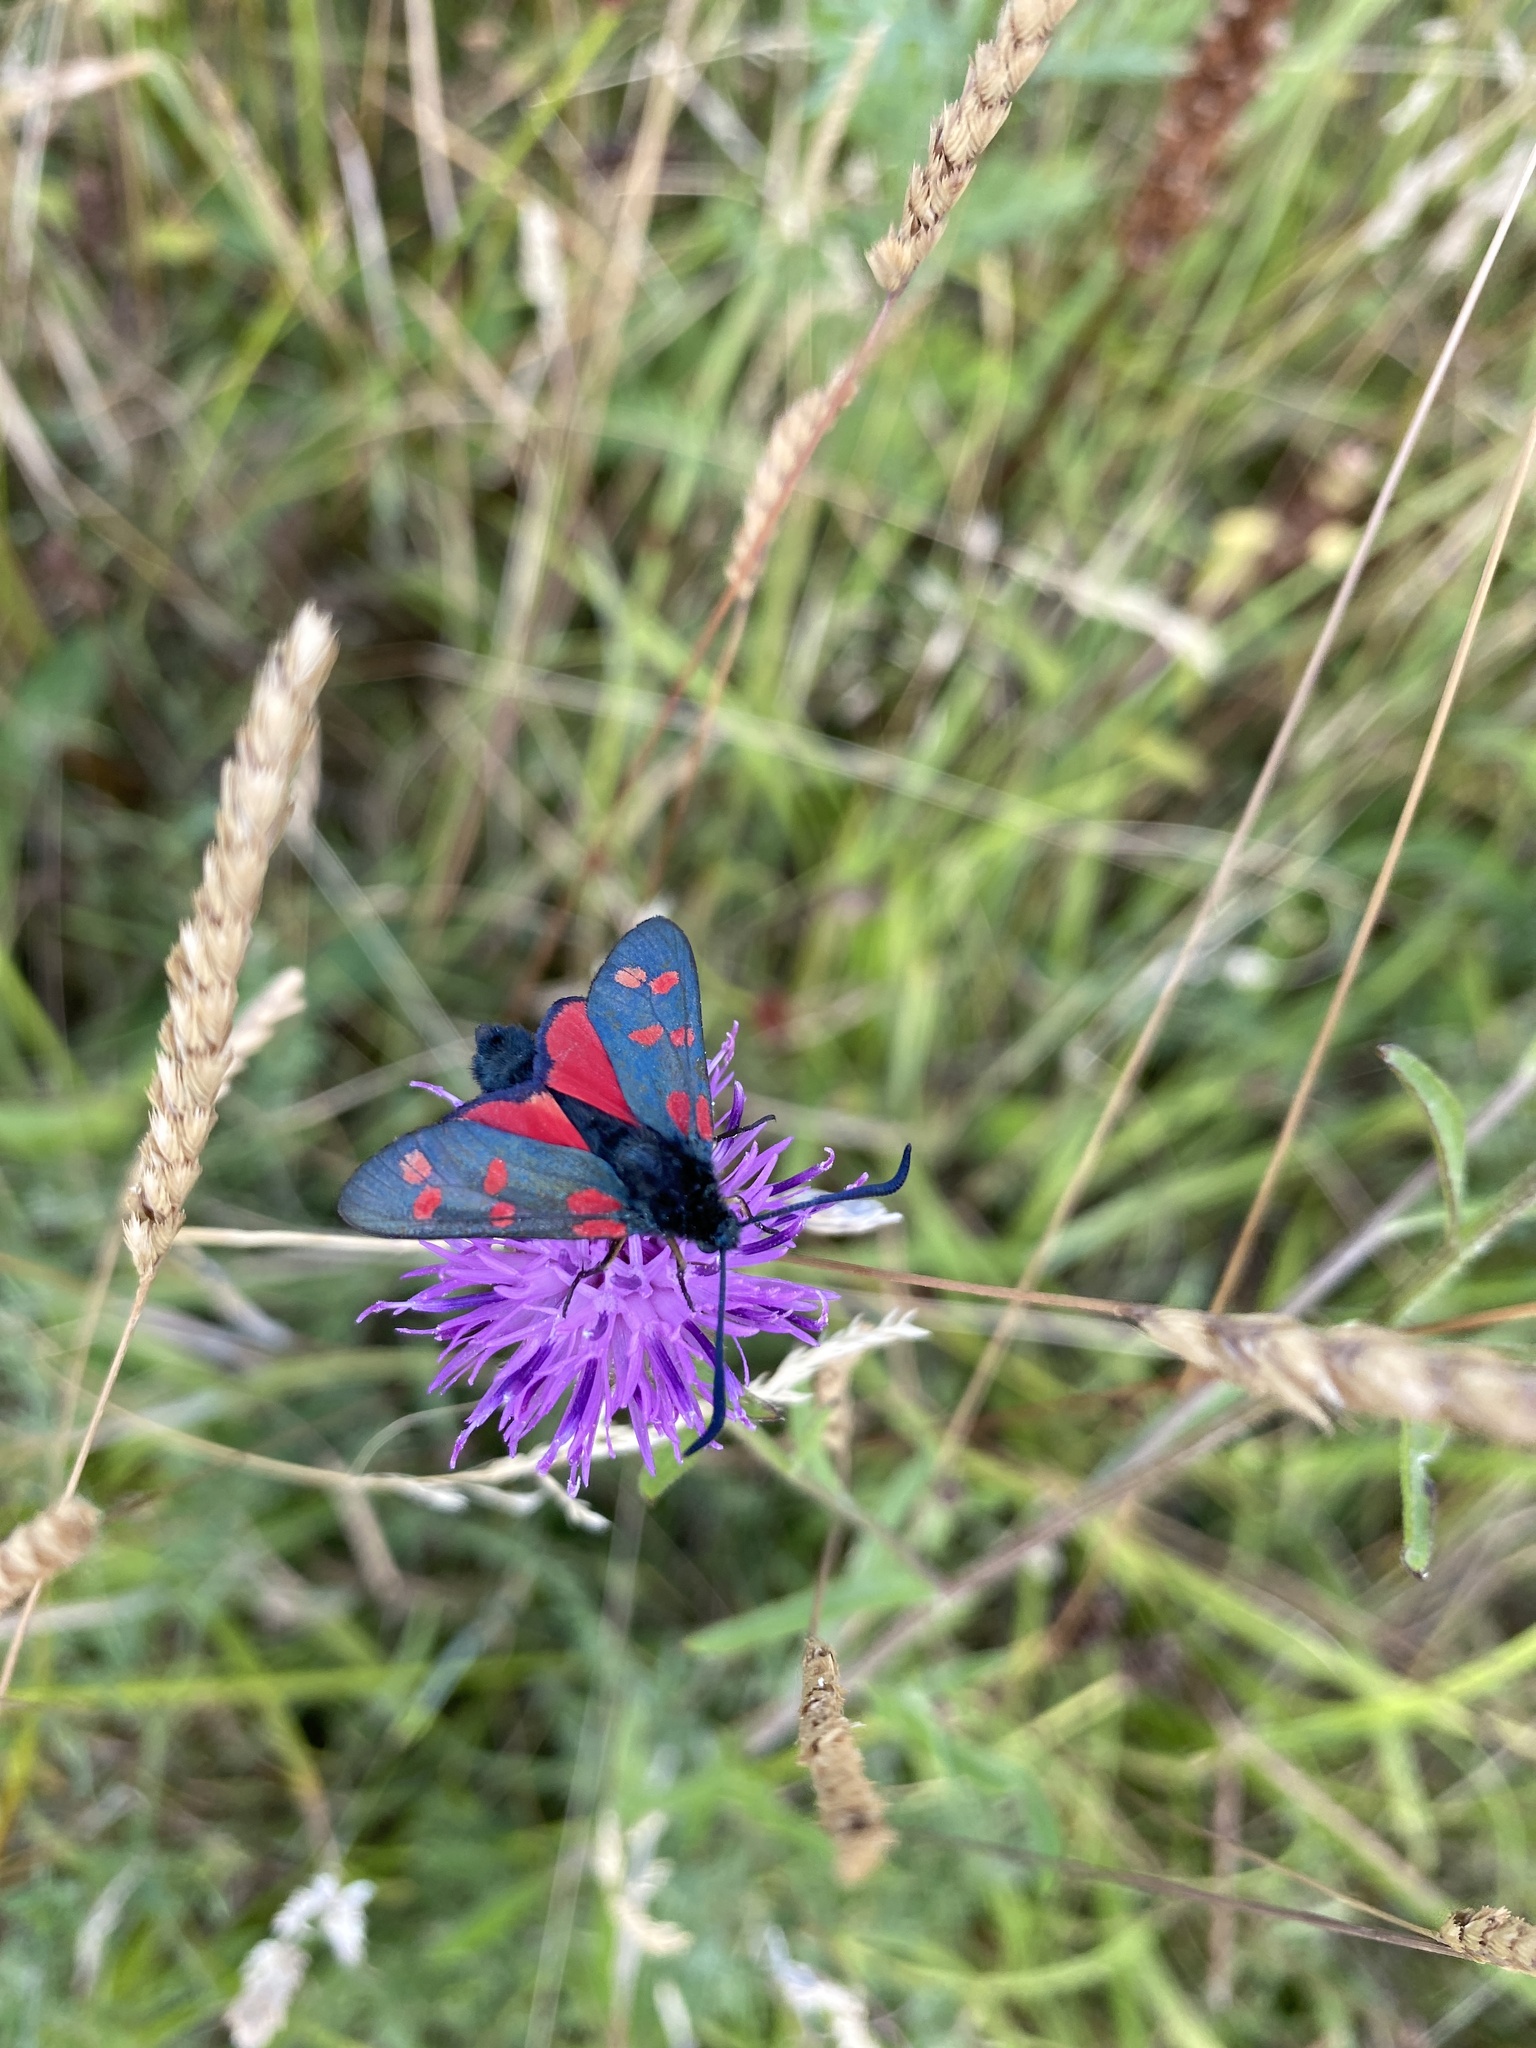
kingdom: Animalia
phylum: Arthropoda
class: Insecta
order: Lepidoptera
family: Zygaenidae
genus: Zygaena
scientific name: Zygaena filipendulae
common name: Six-spot burnet
